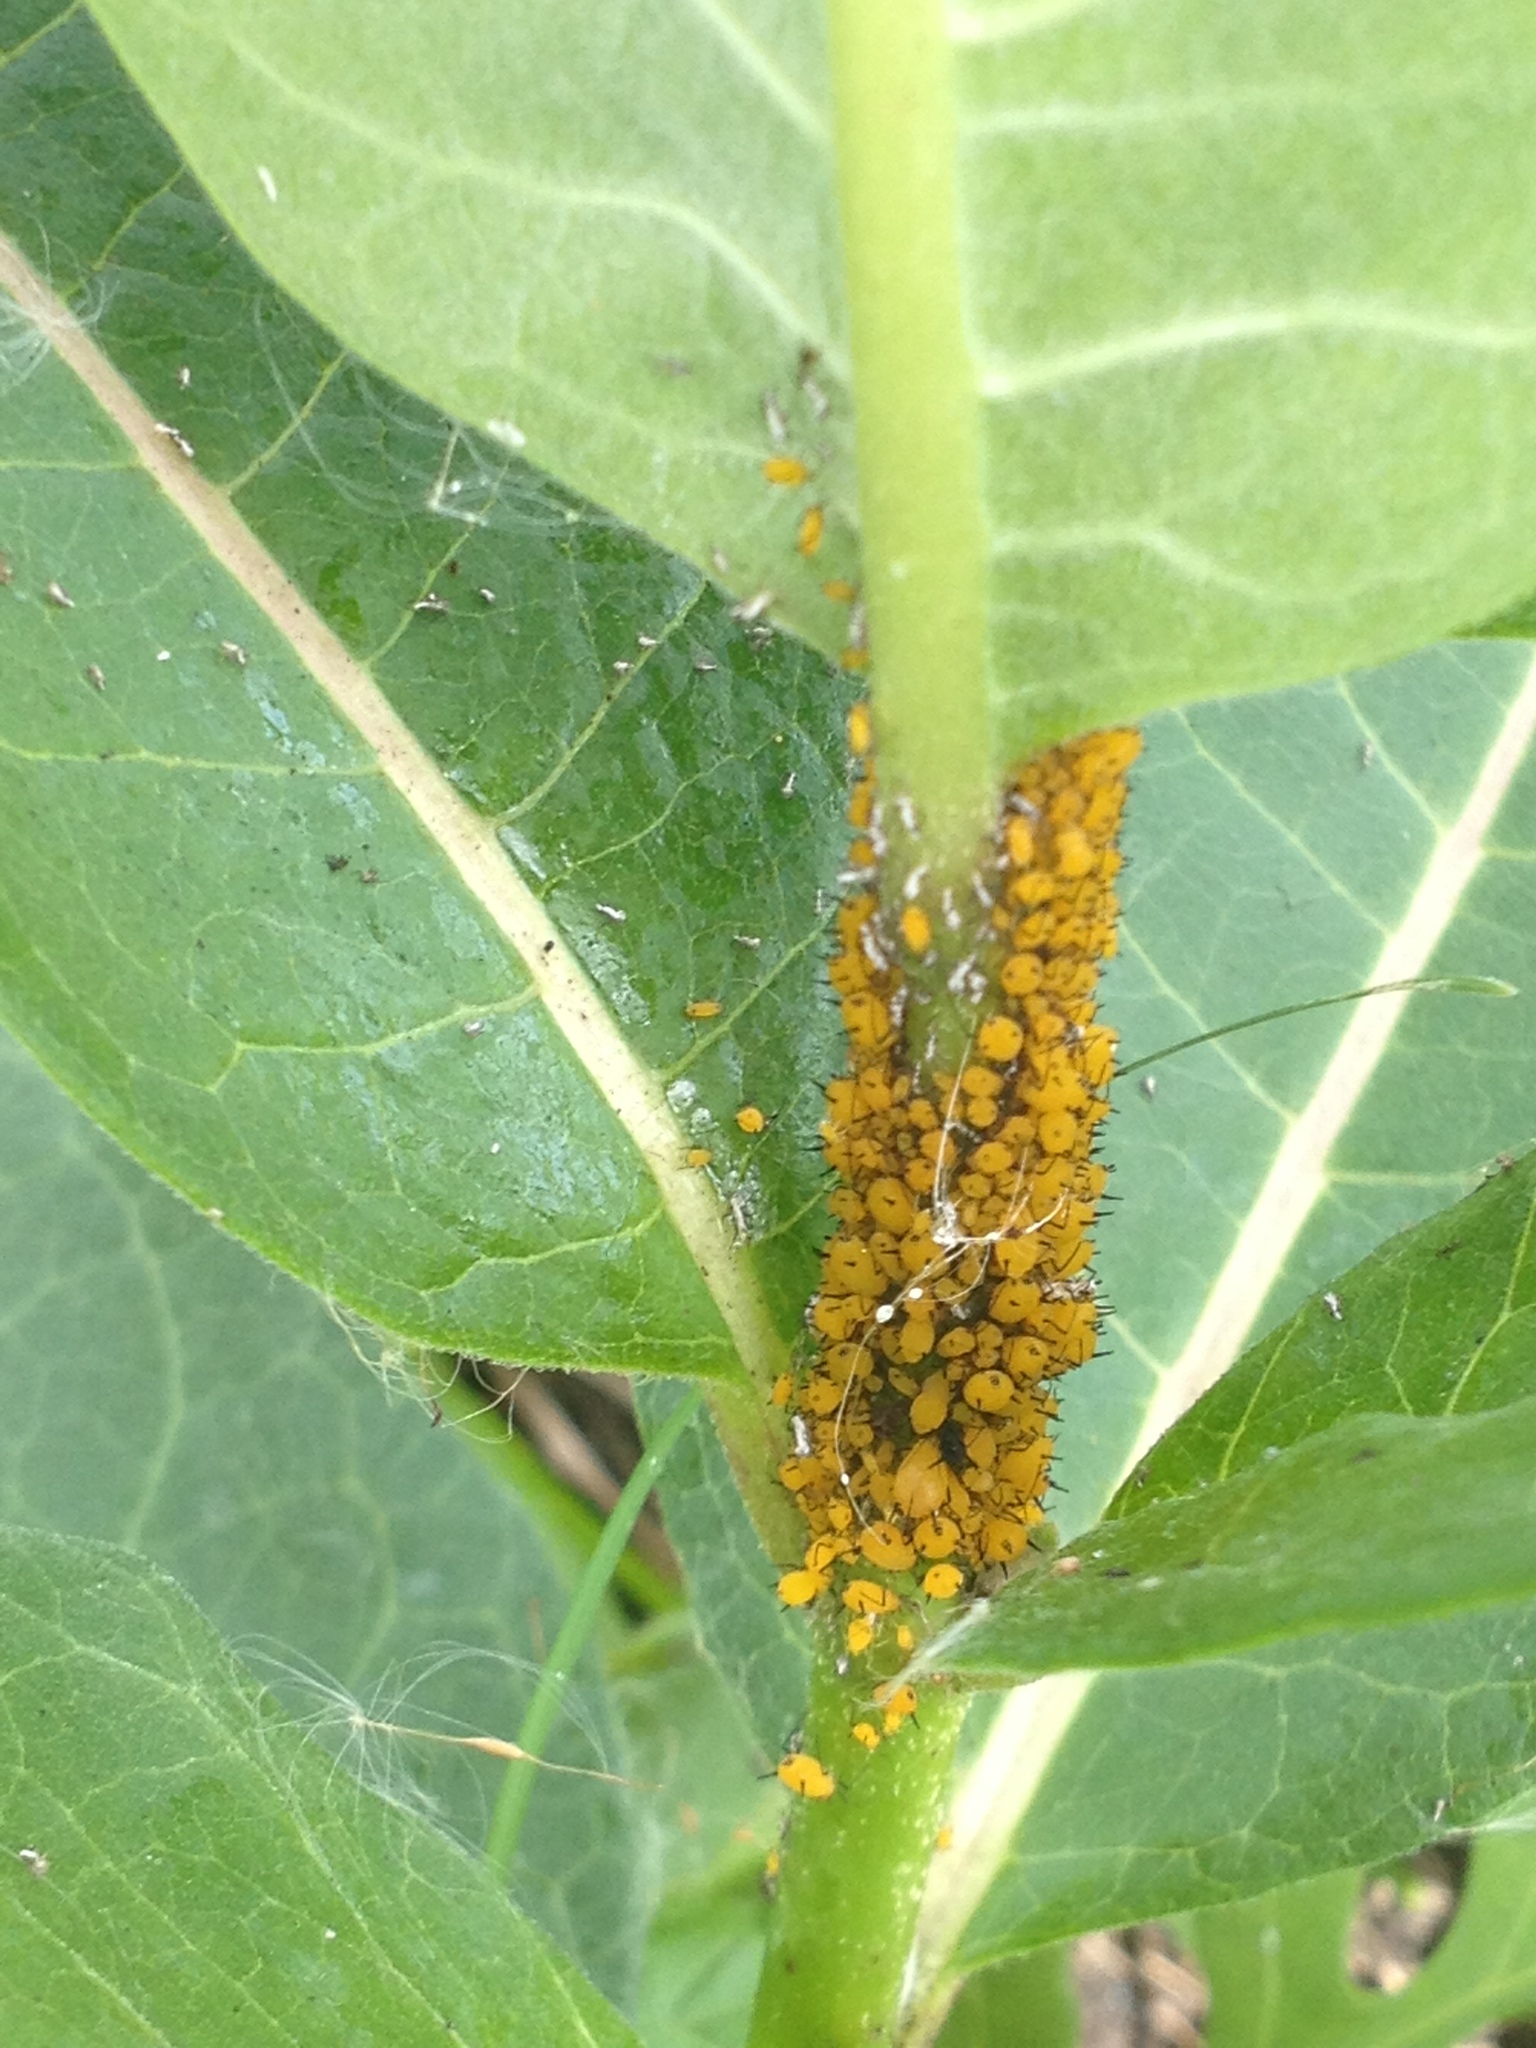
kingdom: Animalia
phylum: Arthropoda
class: Insecta
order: Hemiptera
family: Aphididae
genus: Aphis
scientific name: Aphis nerii
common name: Oleander aphid
